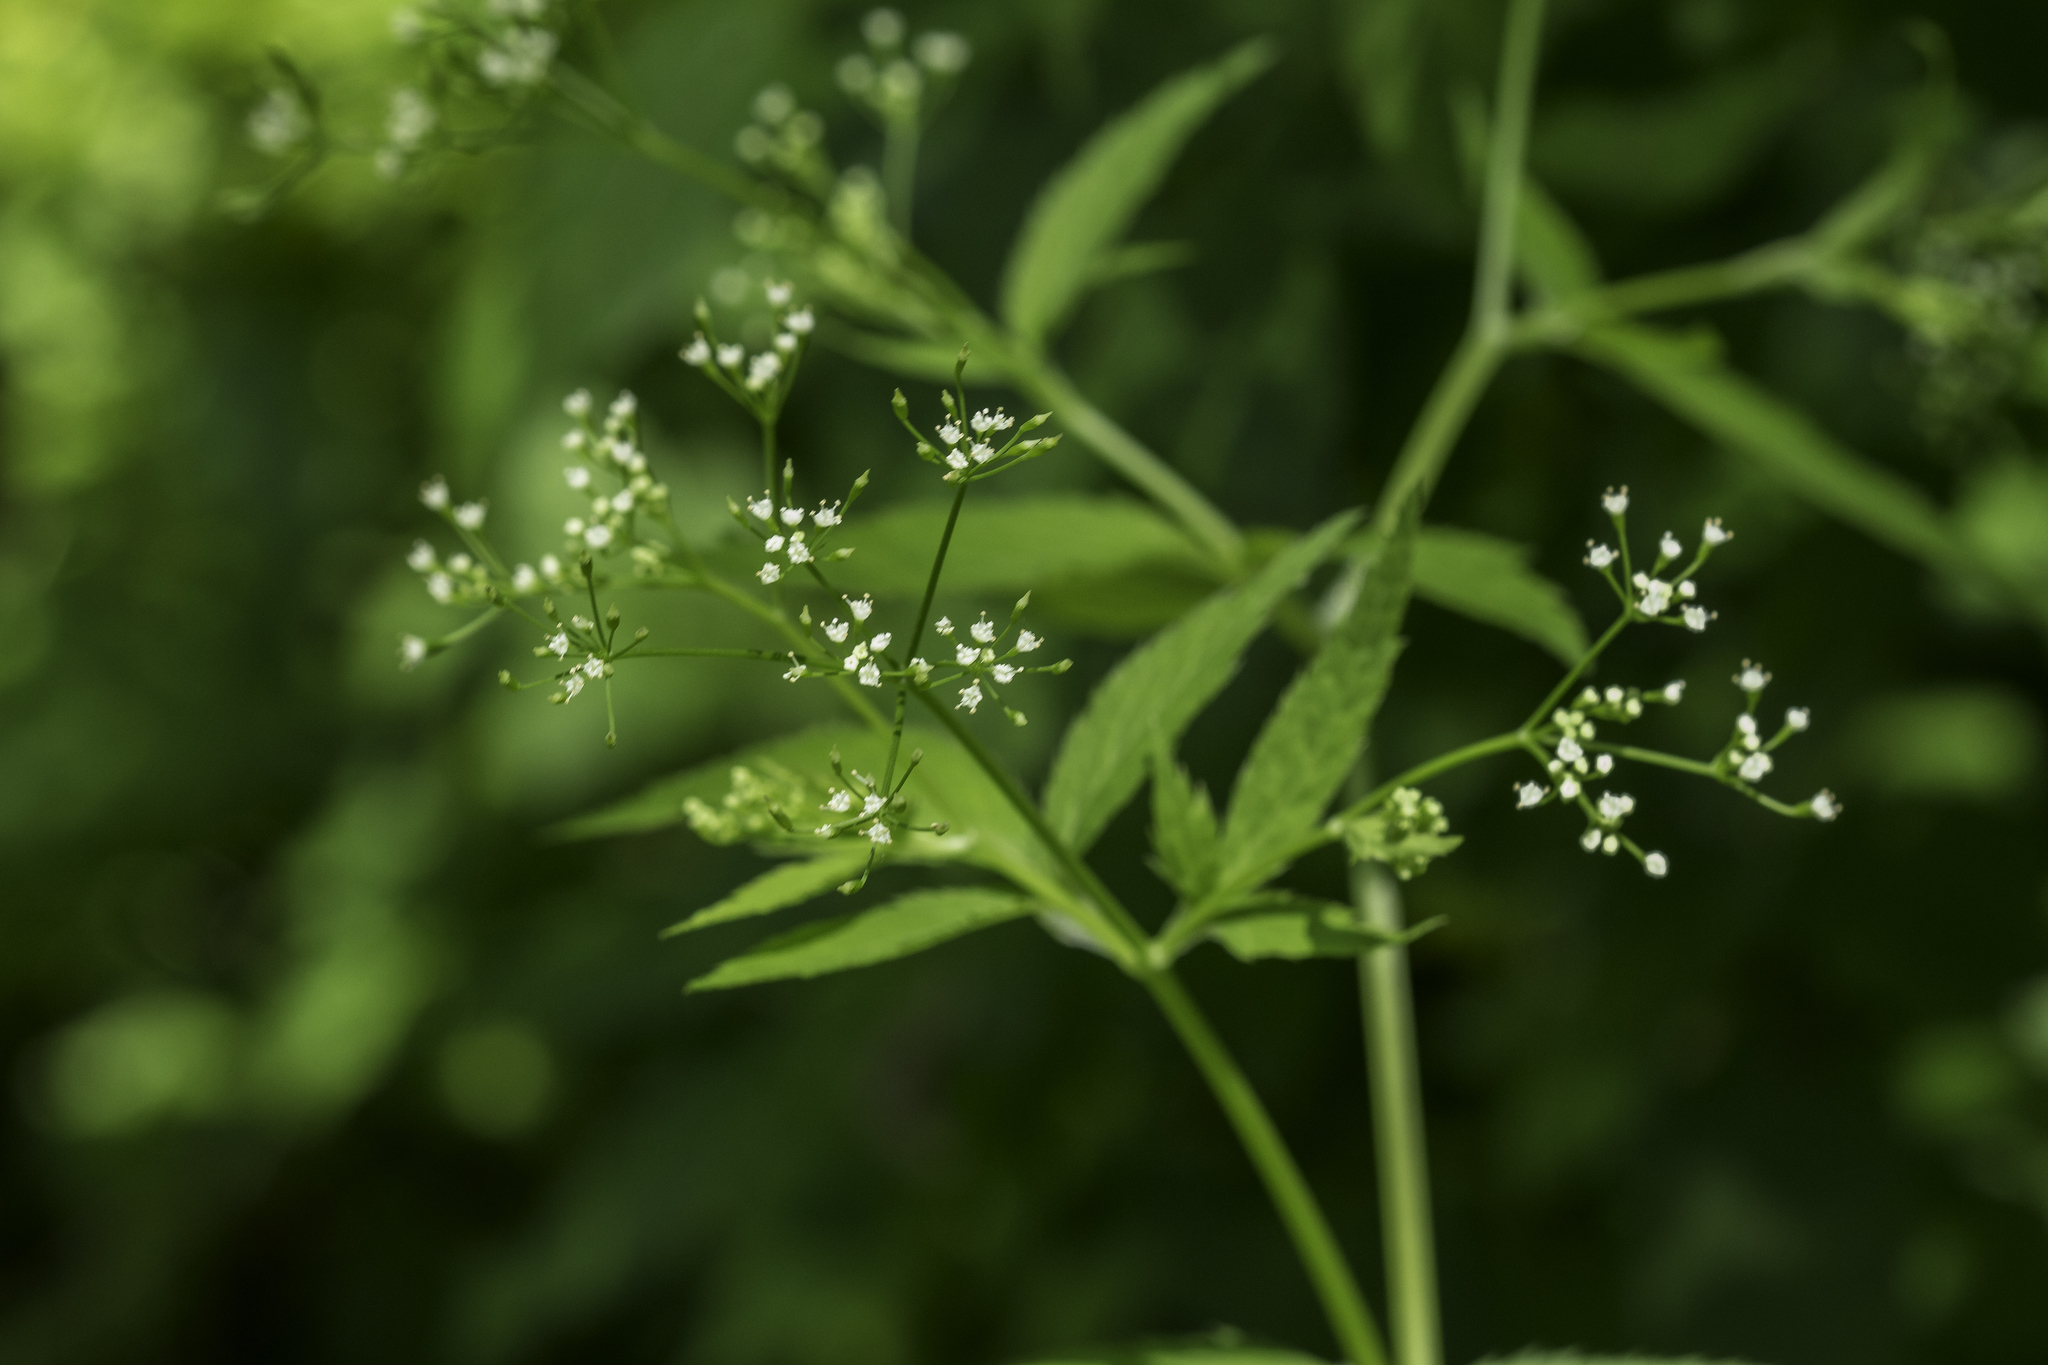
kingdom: Plantae
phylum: Tracheophyta
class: Magnoliopsida
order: Apiales
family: Apiaceae
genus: Cryptotaenia
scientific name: Cryptotaenia canadensis
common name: Honewort
